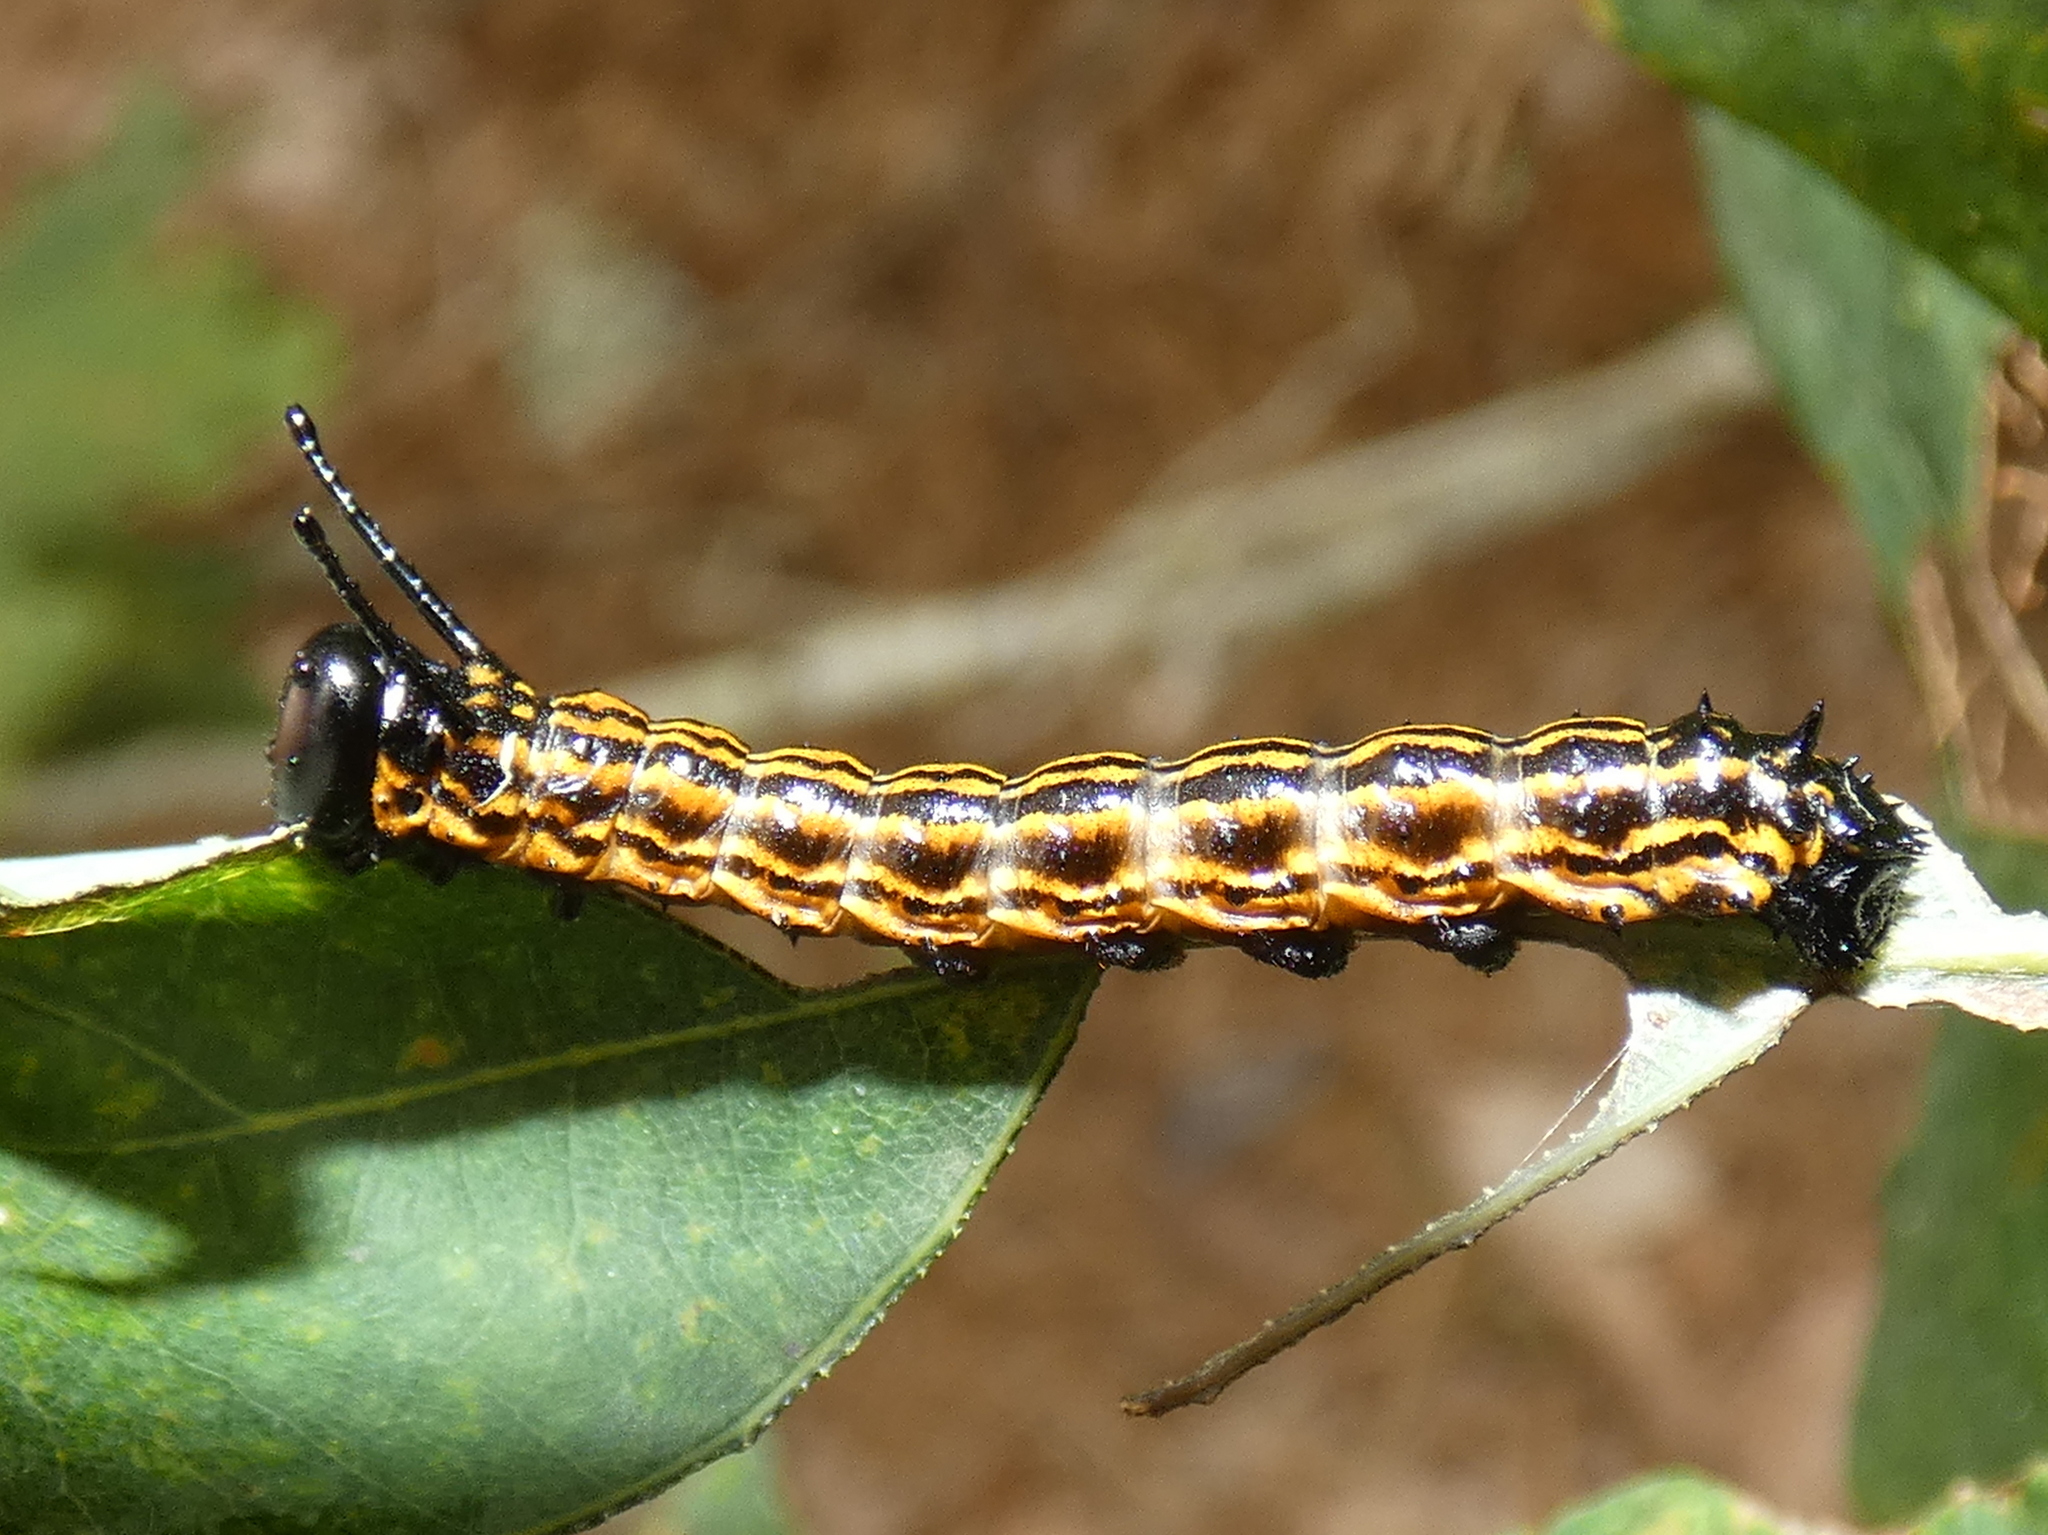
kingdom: Animalia
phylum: Arthropoda
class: Insecta
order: Lepidoptera
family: Saturniidae
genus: Anisota
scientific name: Anisota senatoria
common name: Orange-striped oakworm moth
